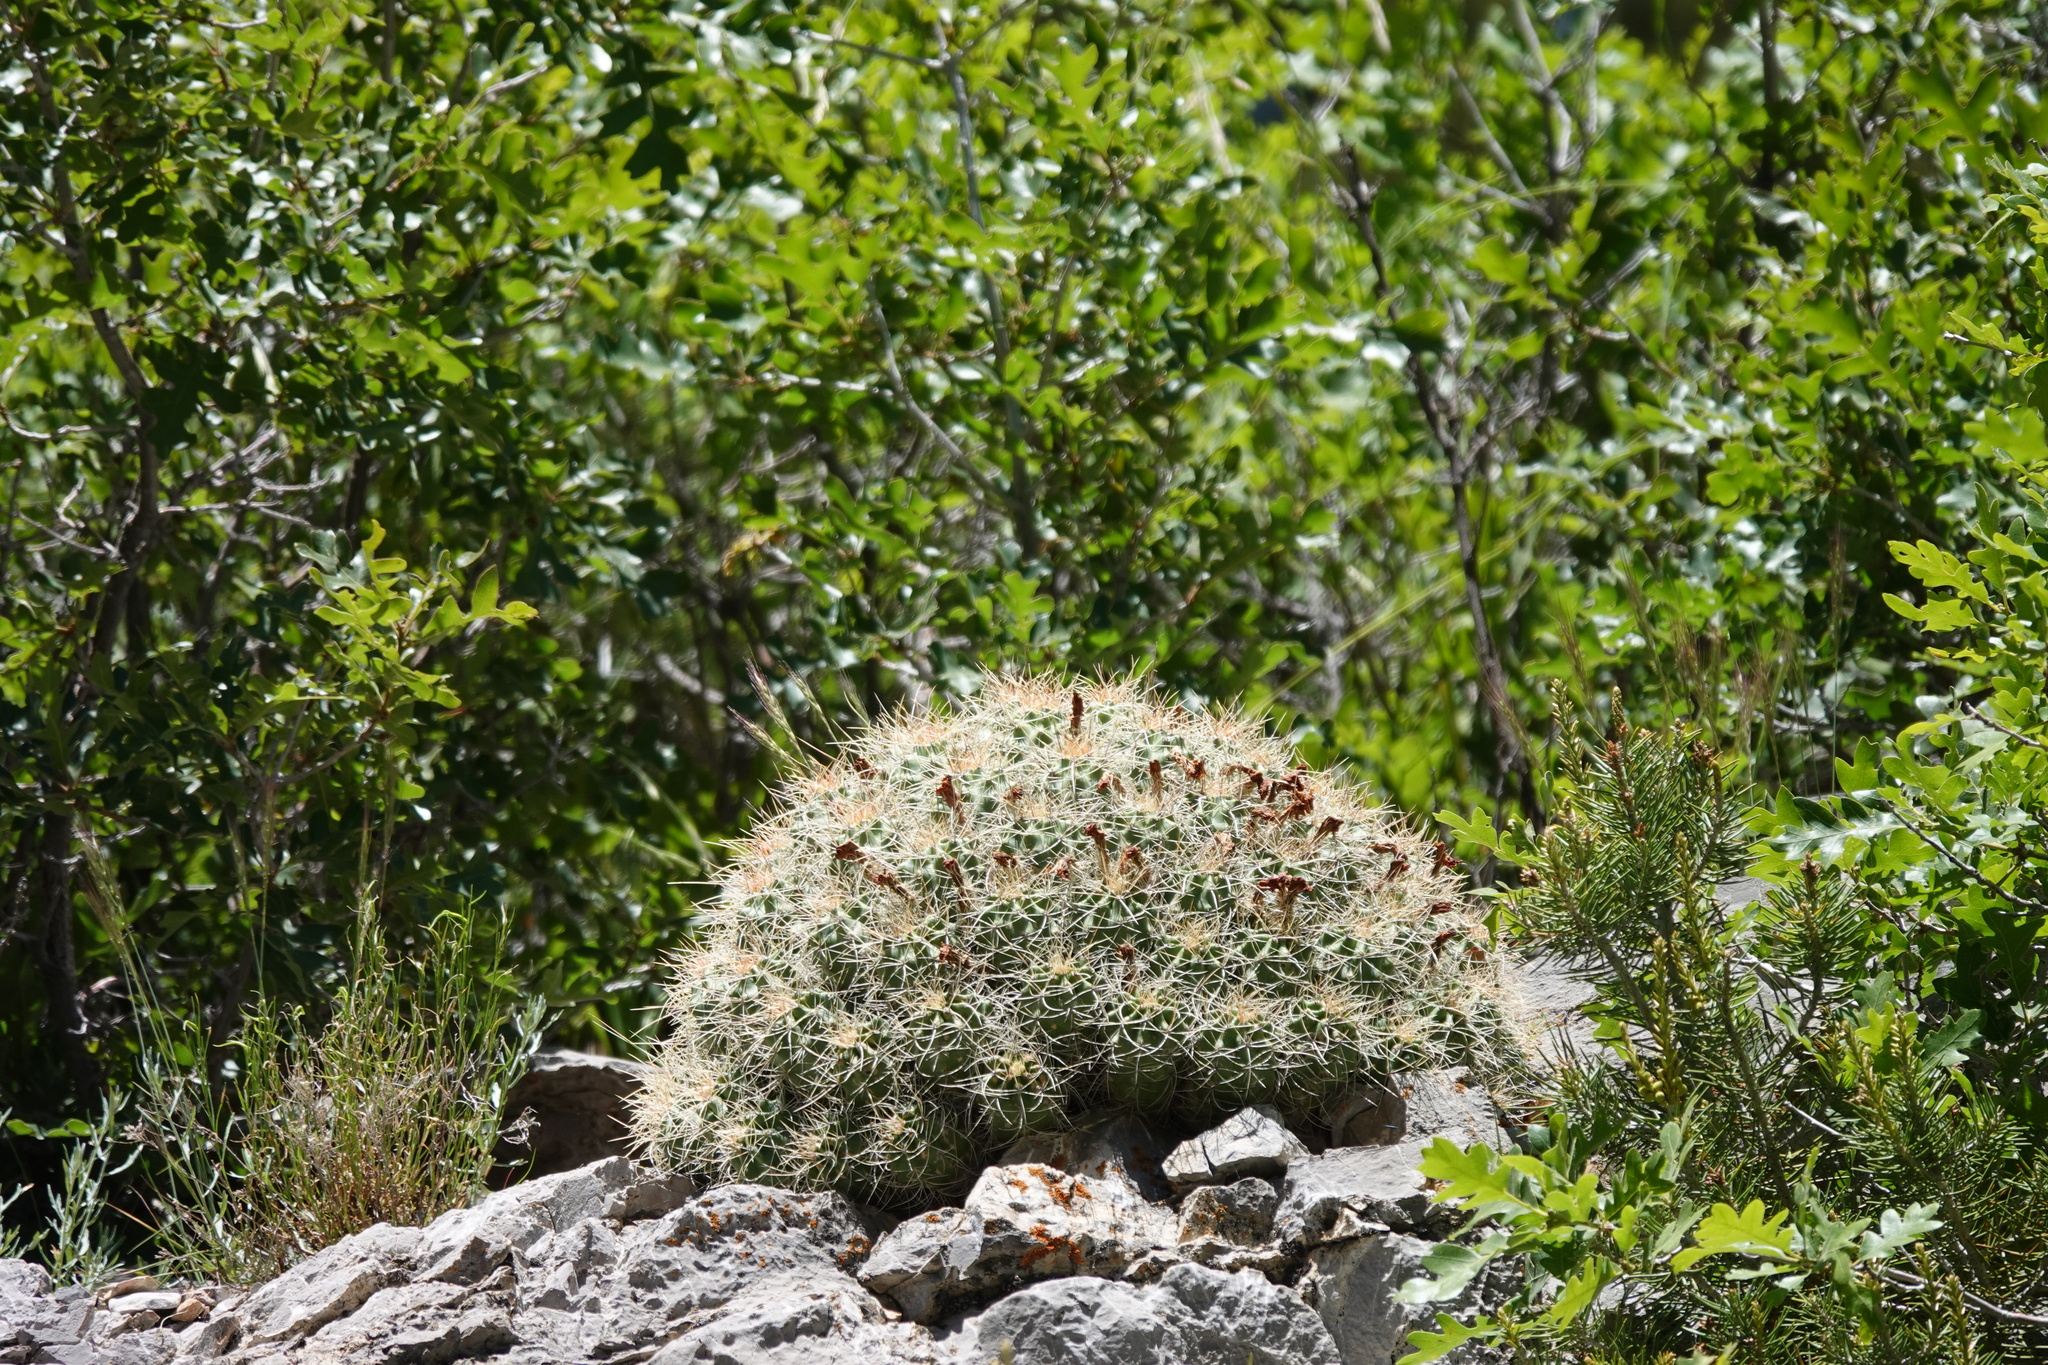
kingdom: Plantae
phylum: Tracheophyta
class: Magnoliopsida
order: Caryophyllales
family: Cactaceae
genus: Echinocereus
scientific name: Echinocereus triglochidiatus
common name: Claretcup hedgehog
